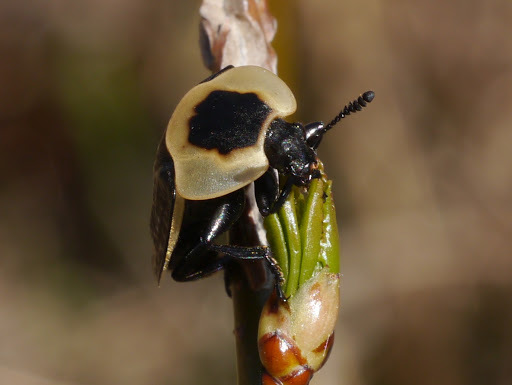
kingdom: Animalia
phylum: Arthropoda
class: Insecta
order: Coleoptera
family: Staphylinidae
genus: Necrophila
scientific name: Necrophila americana
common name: American carrion beetle
